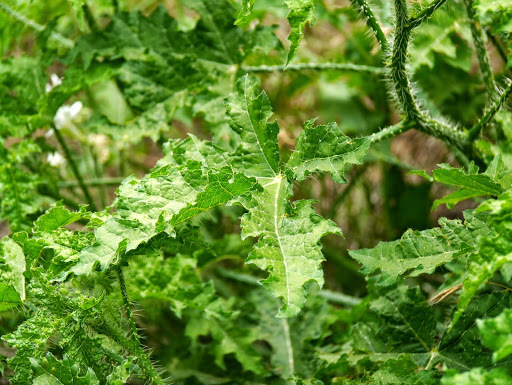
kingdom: Plantae
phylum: Tracheophyta
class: Magnoliopsida
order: Malpighiales
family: Euphorbiaceae
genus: Cnidoscolus
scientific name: Cnidoscolus texanus
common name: Texas bull-nettle
